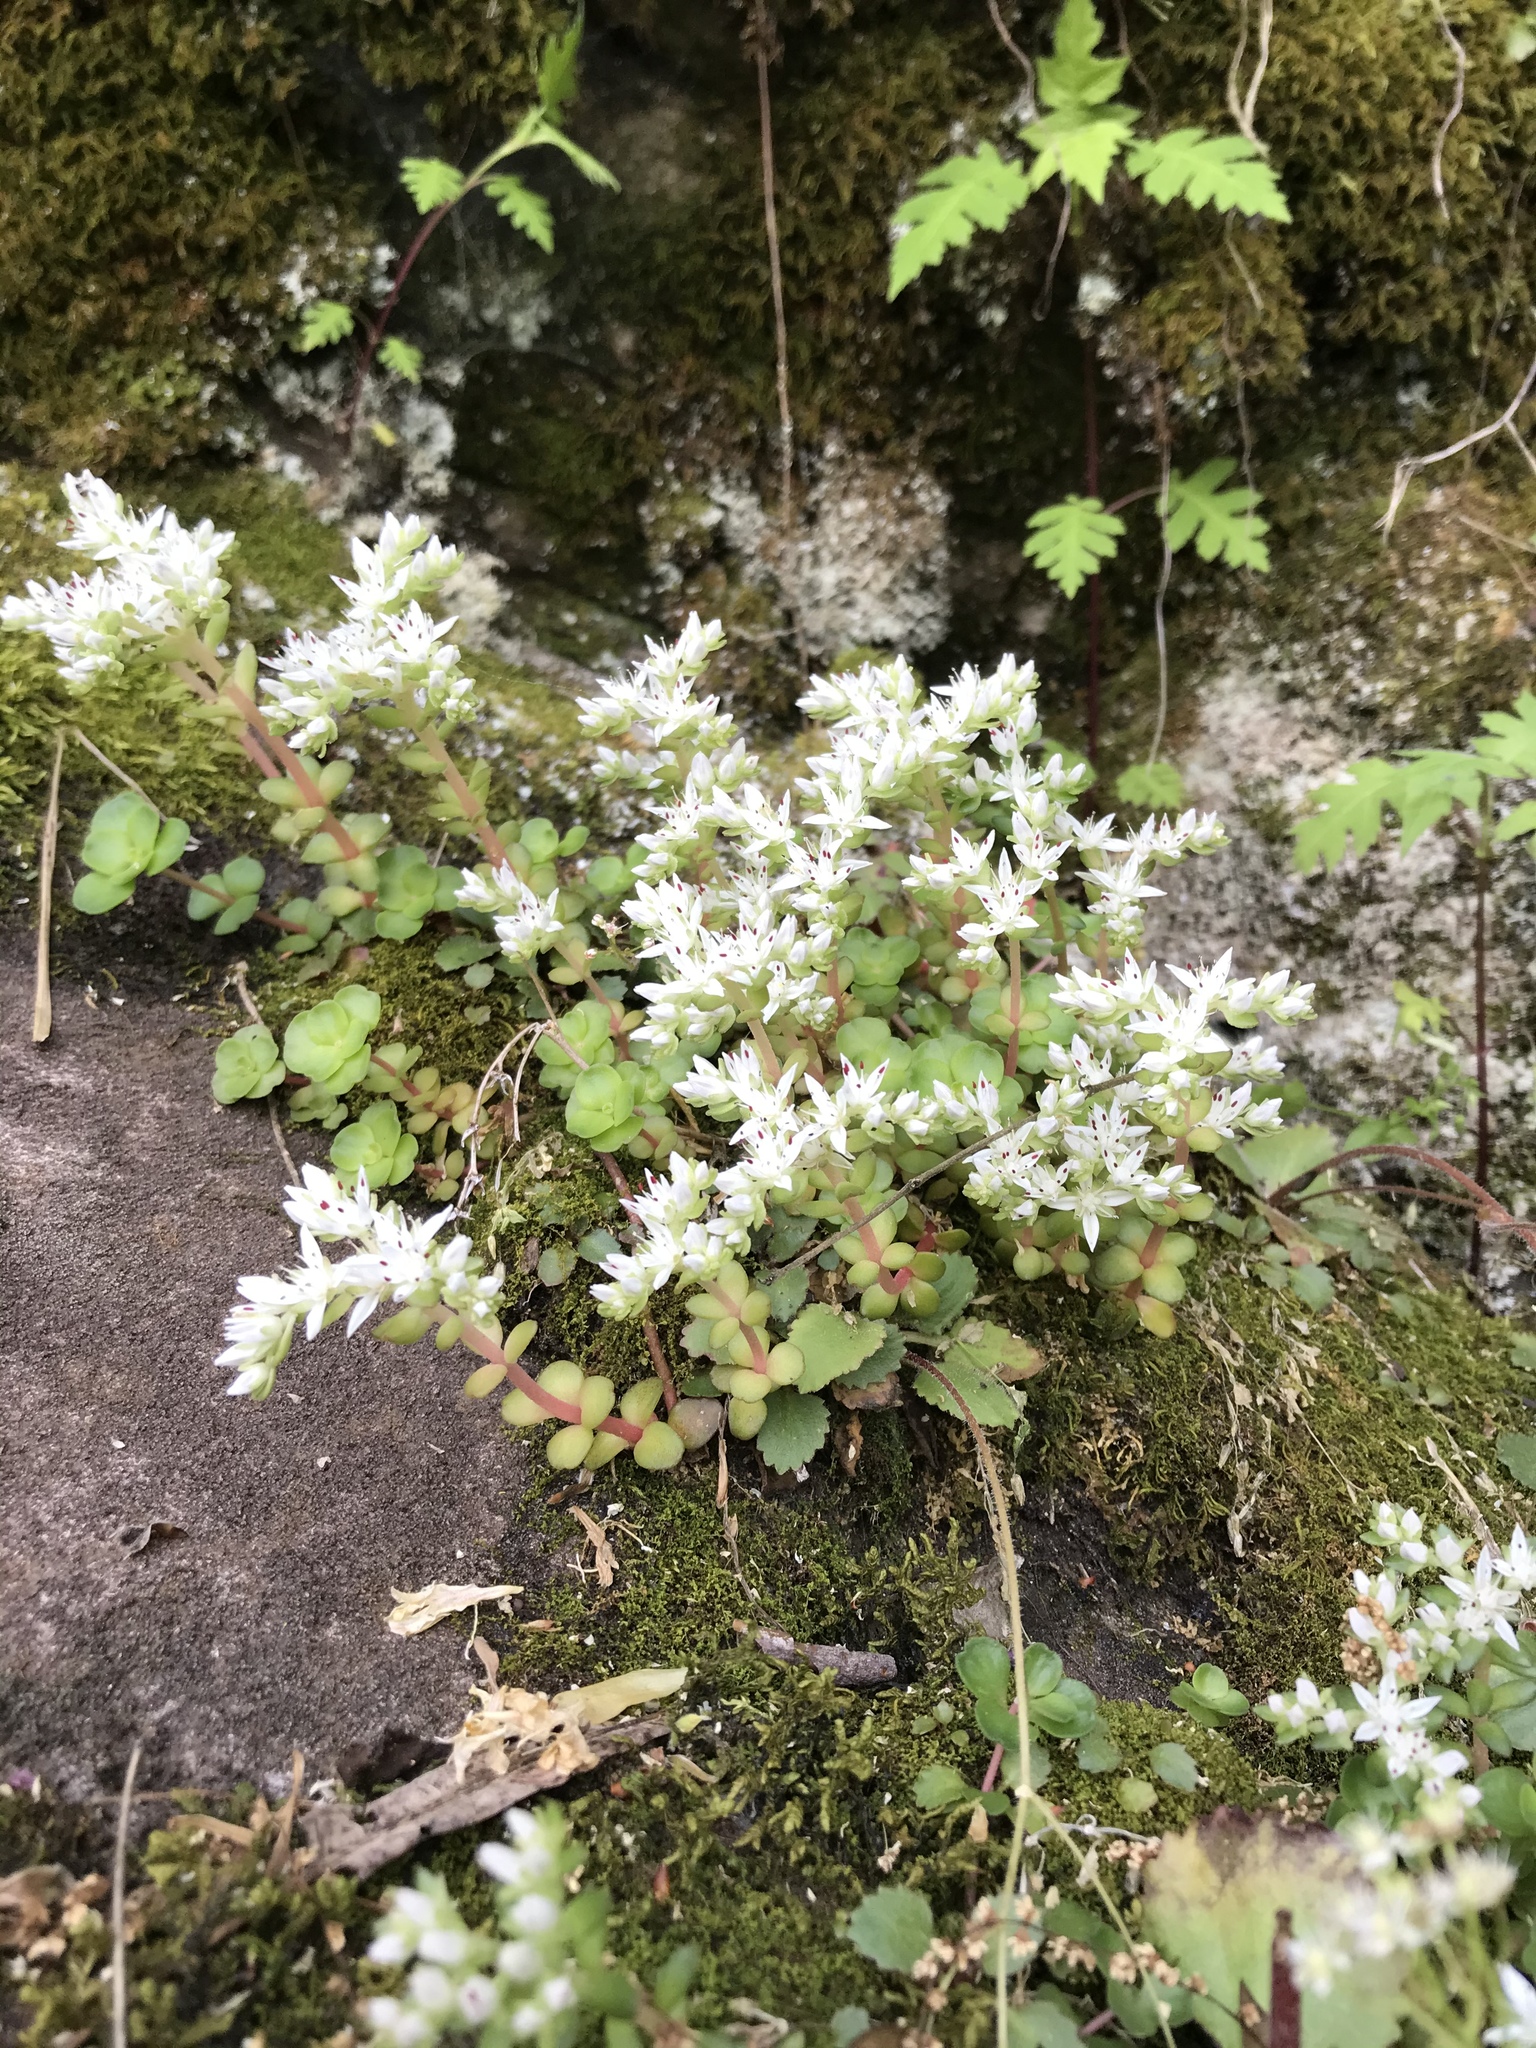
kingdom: Plantae
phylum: Tracheophyta
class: Magnoliopsida
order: Saxifragales
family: Crassulaceae
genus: Sedum
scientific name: Sedum ternatum
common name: Wild stonecrop
